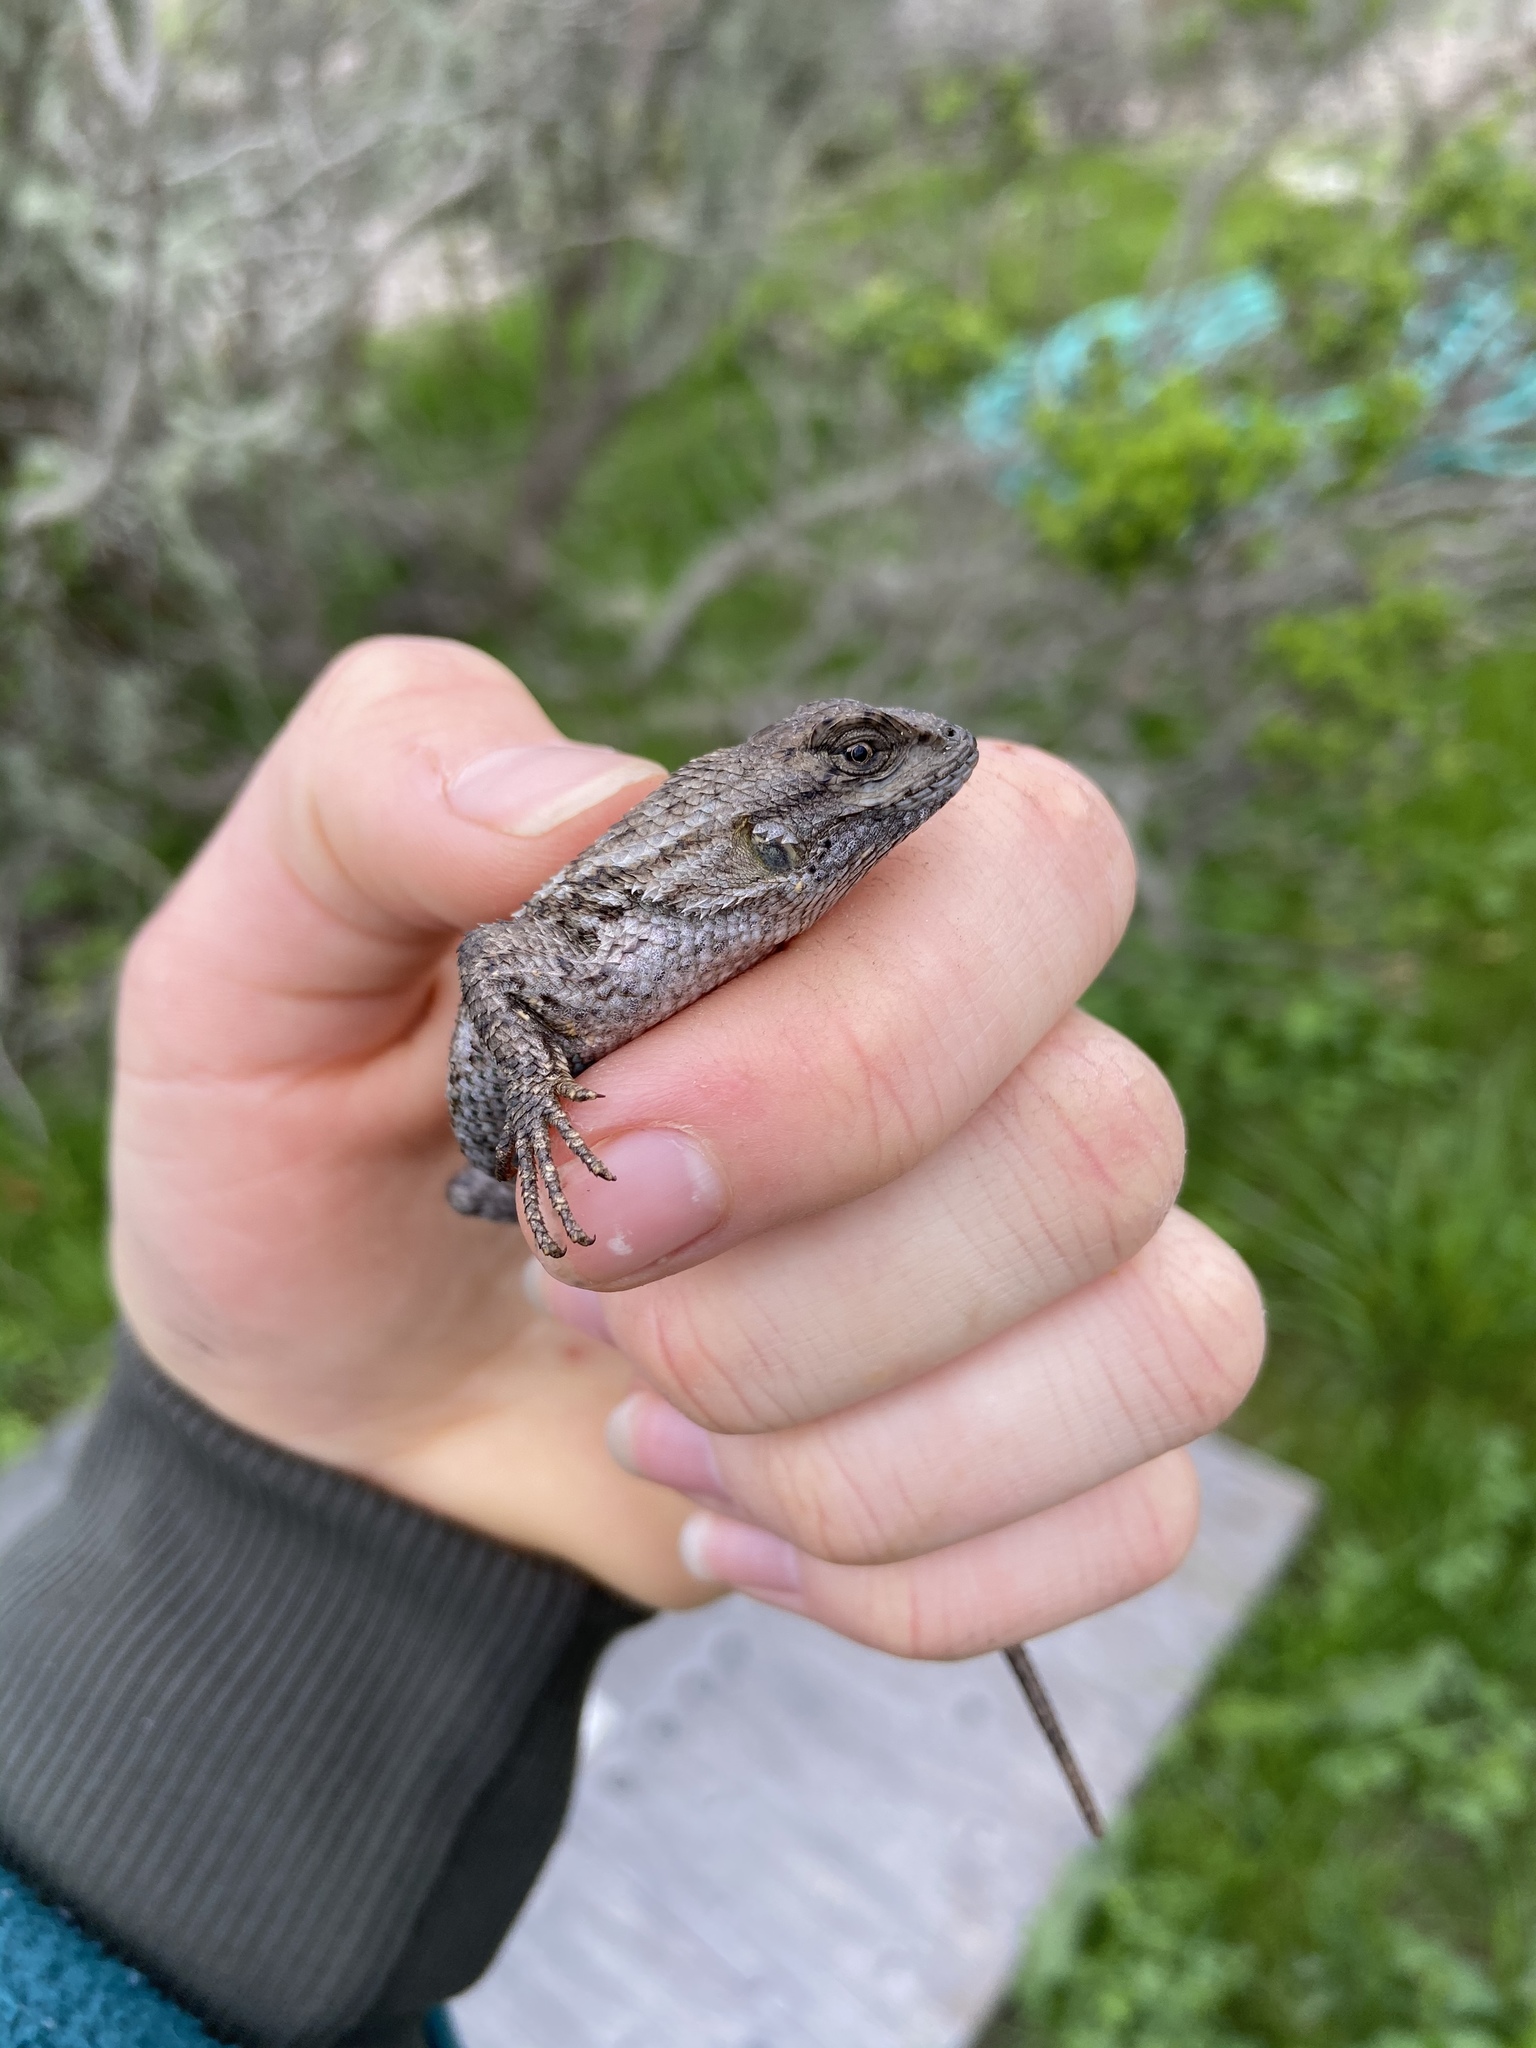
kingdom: Animalia
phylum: Chordata
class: Squamata
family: Phrynosomatidae
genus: Sceloporus
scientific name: Sceloporus occidentalis
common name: Western fence lizard
